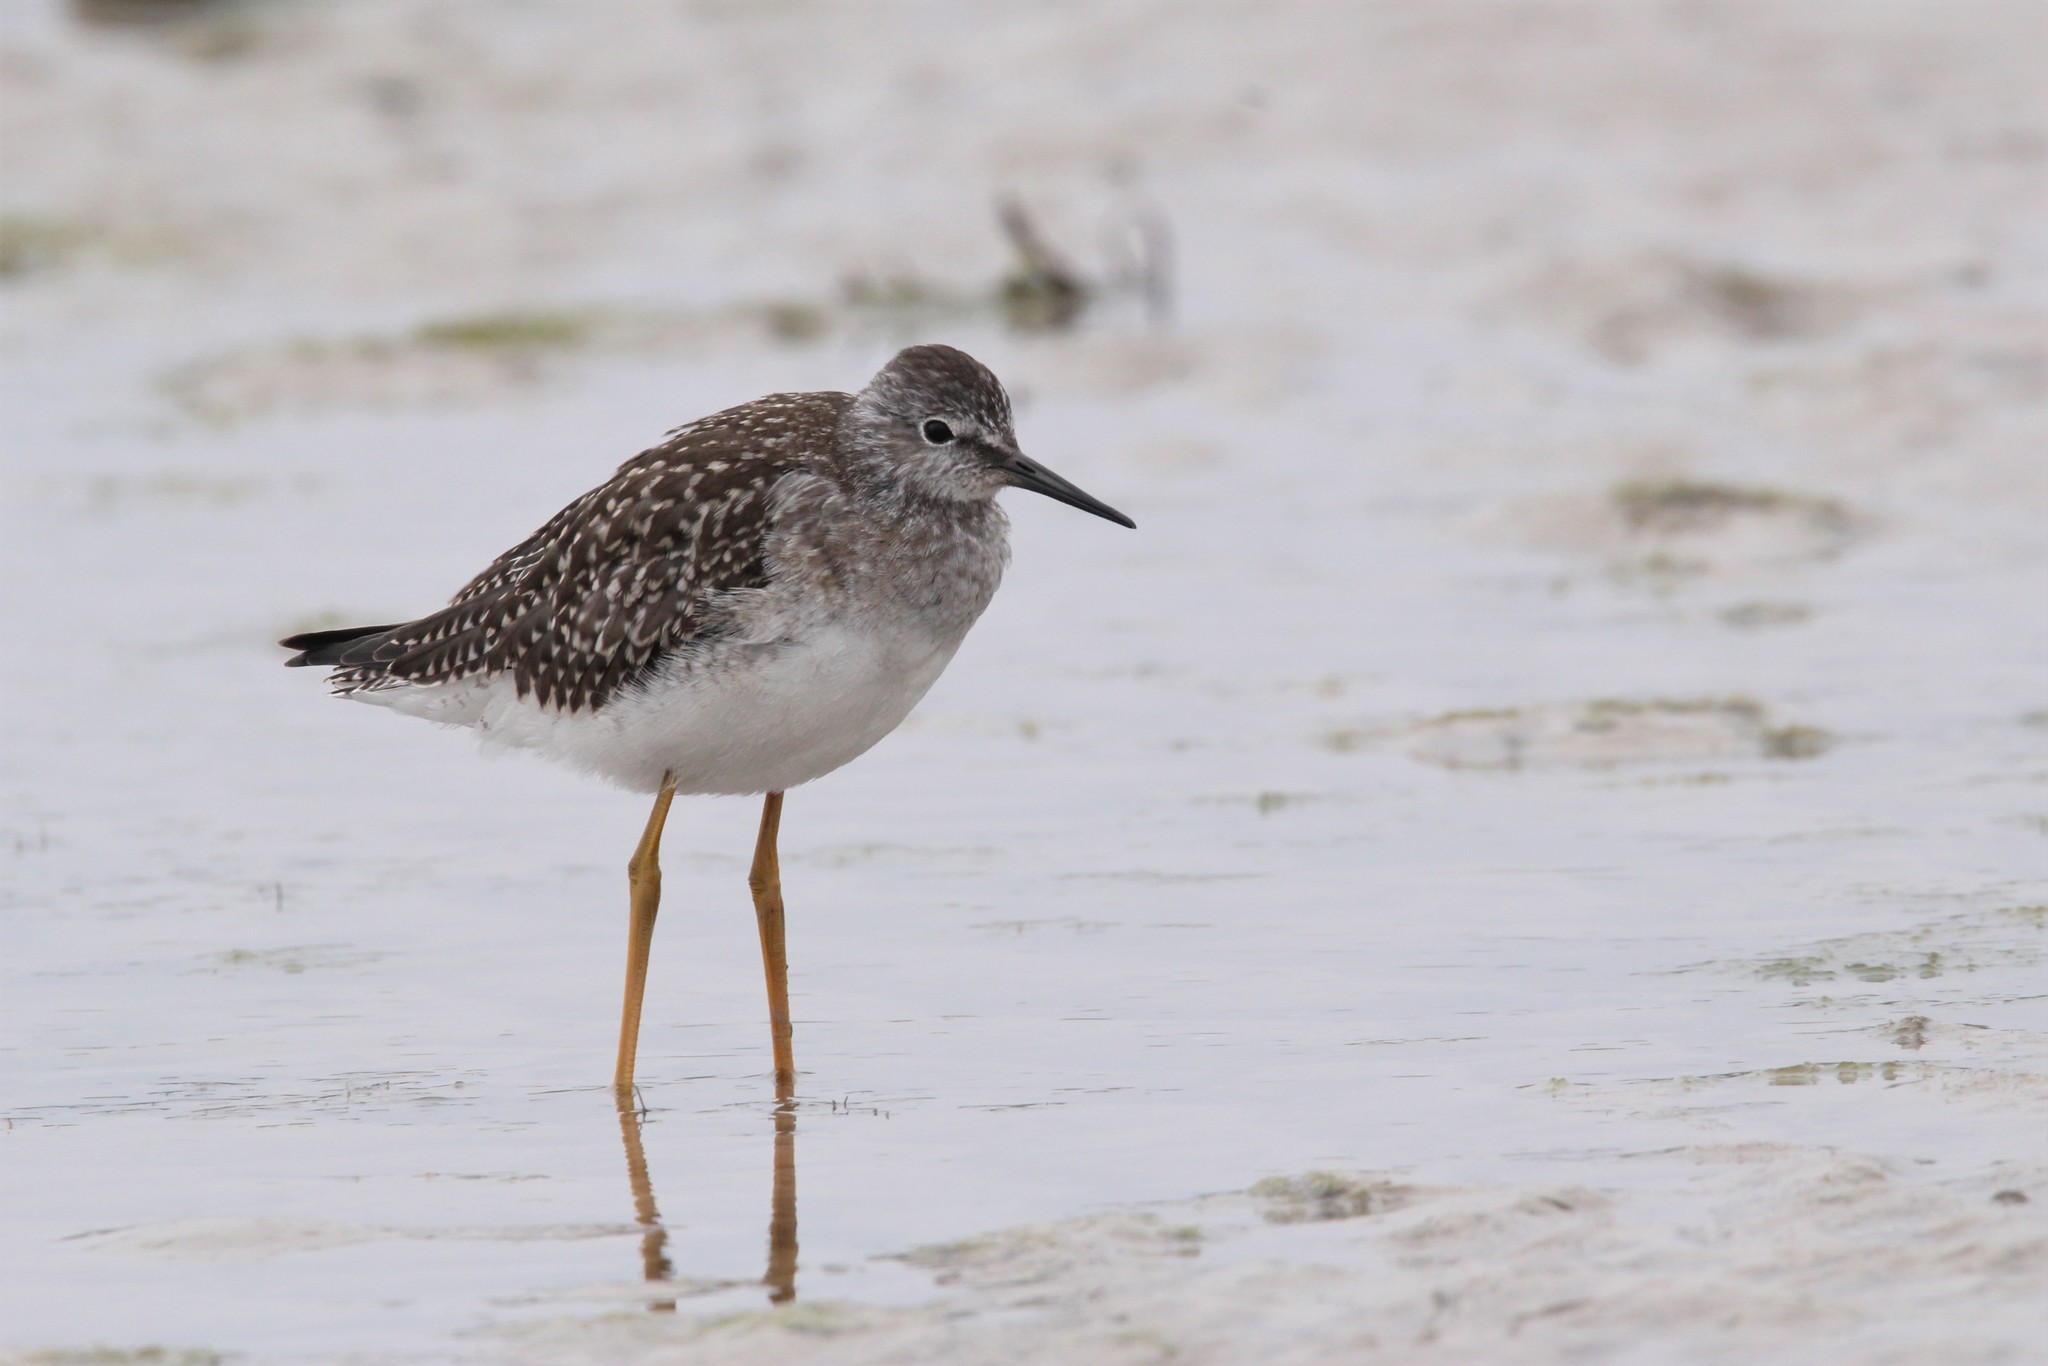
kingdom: Animalia
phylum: Chordata
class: Aves
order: Charadriiformes
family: Scolopacidae
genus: Tringa
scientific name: Tringa flavipes
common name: Lesser yellowlegs
